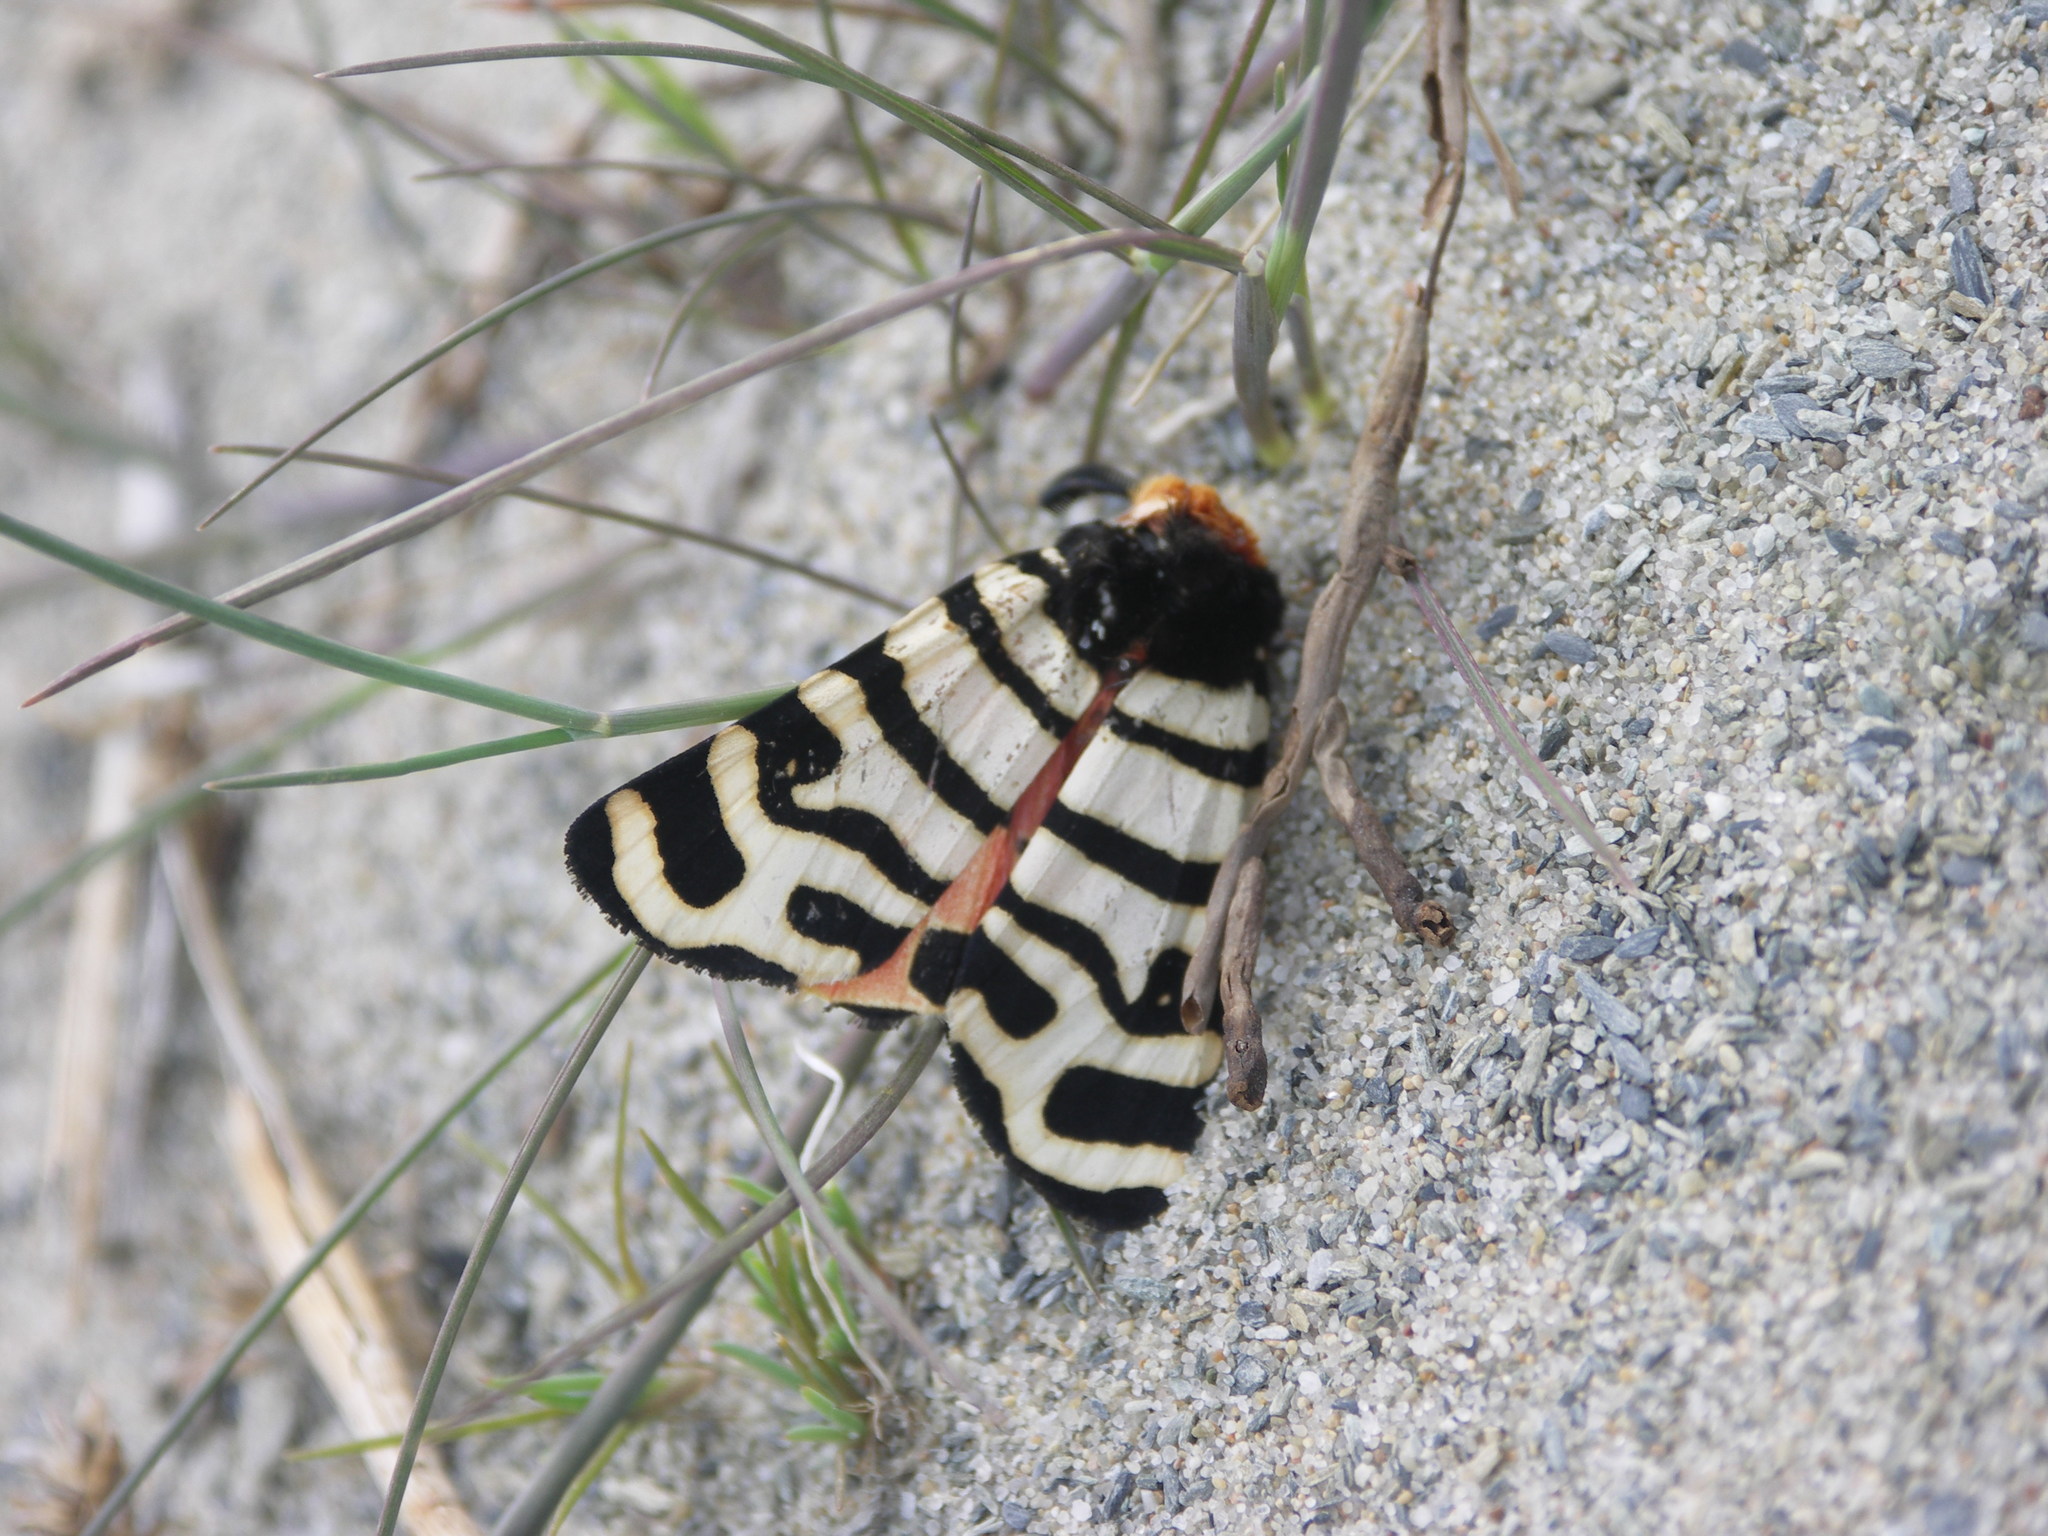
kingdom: Animalia
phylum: Arthropoda
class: Insecta
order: Lepidoptera
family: Erebidae
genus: Eucharia
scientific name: Eucharia festiva
